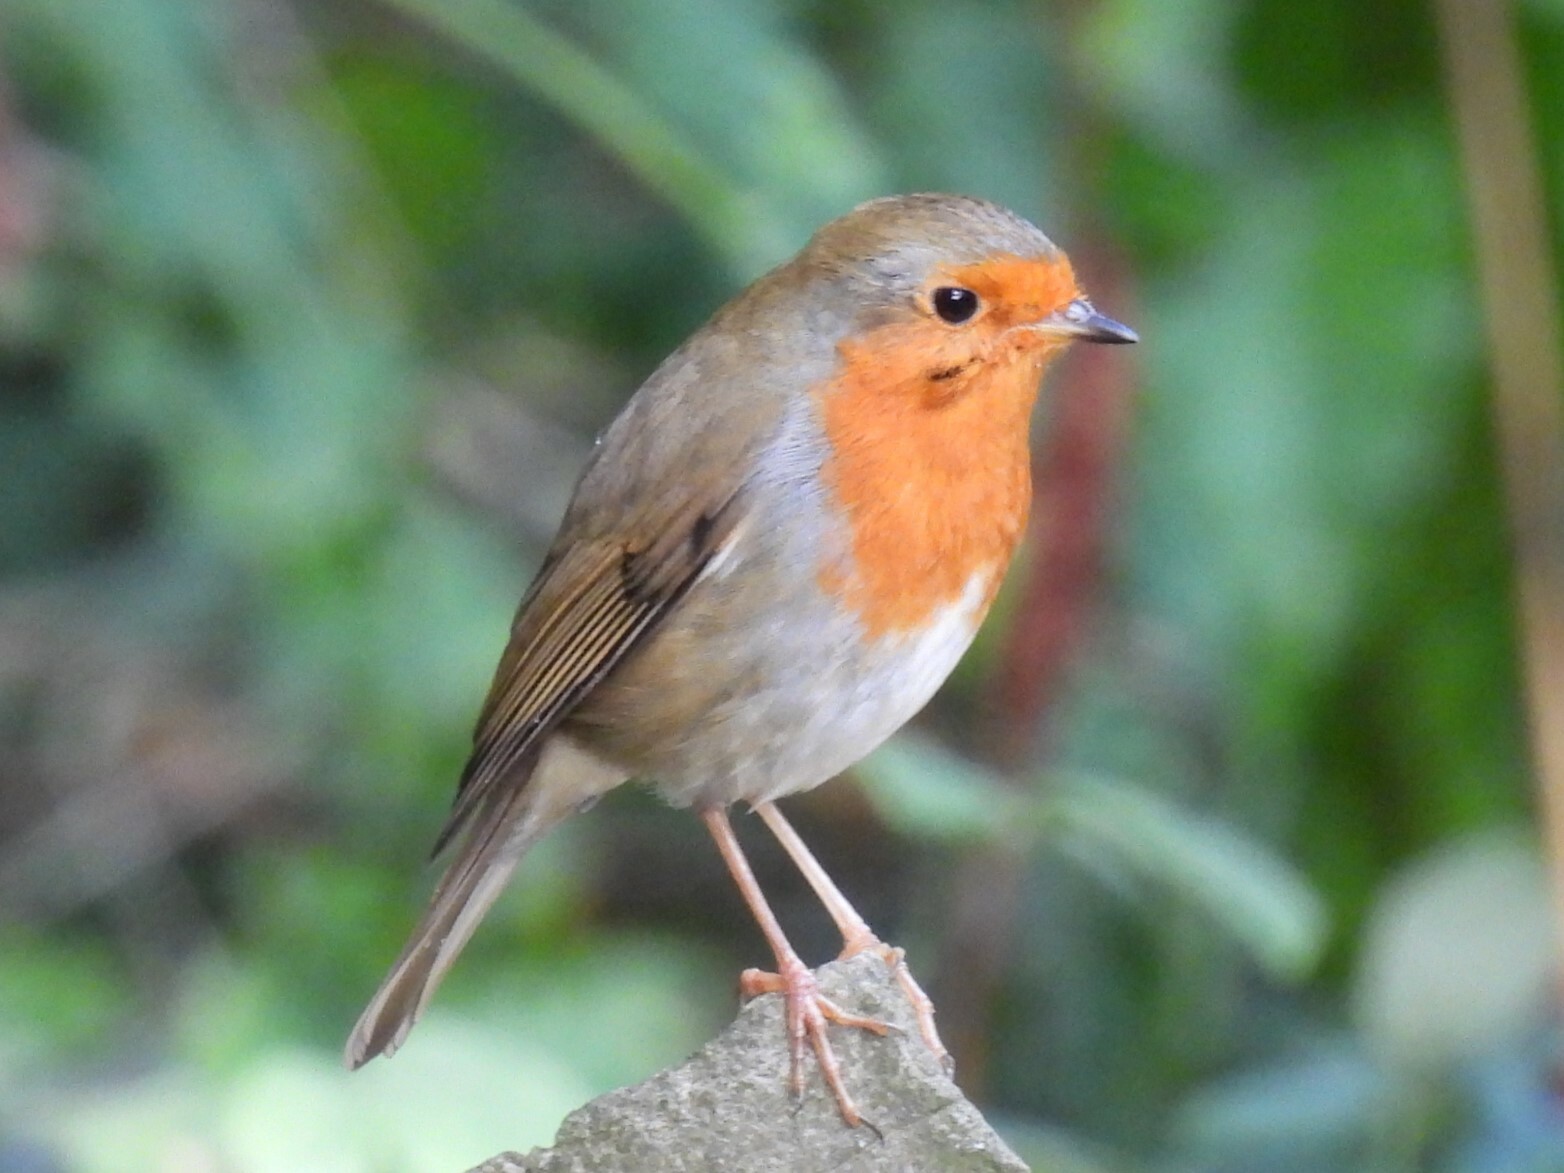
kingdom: Animalia
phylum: Chordata
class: Aves
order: Passeriformes
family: Muscicapidae
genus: Erithacus
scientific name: Erithacus rubecula
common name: European robin
